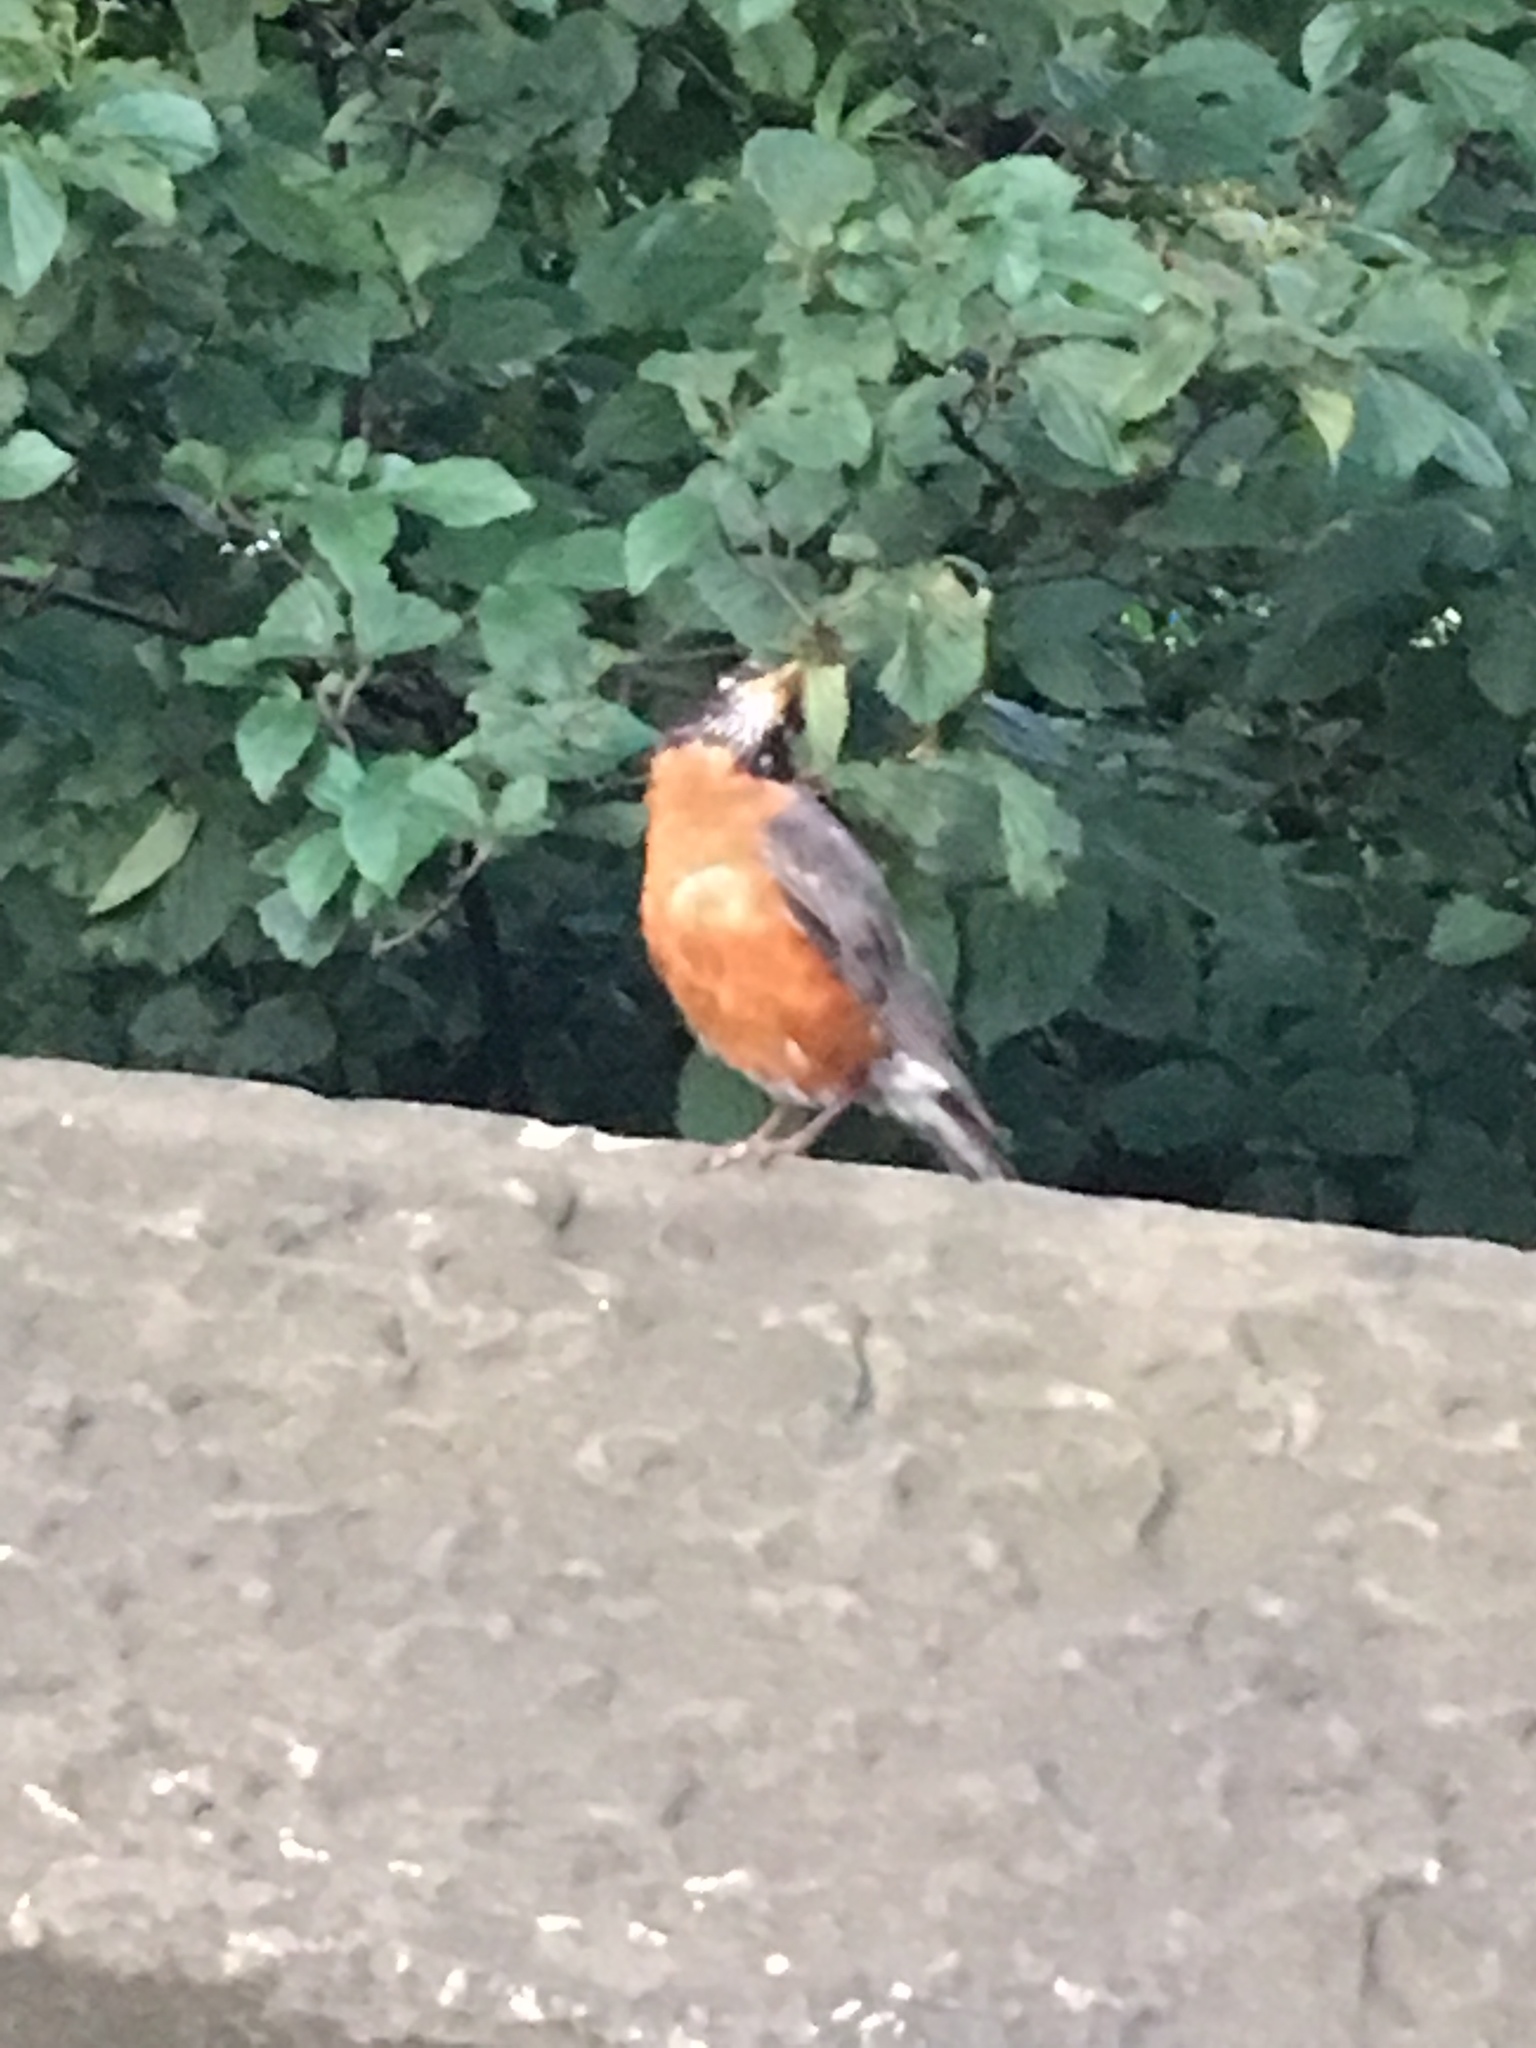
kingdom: Animalia
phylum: Chordata
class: Aves
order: Passeriformes
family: Turdidae
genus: Turdus
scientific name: Turdus migratorius
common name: American robin
